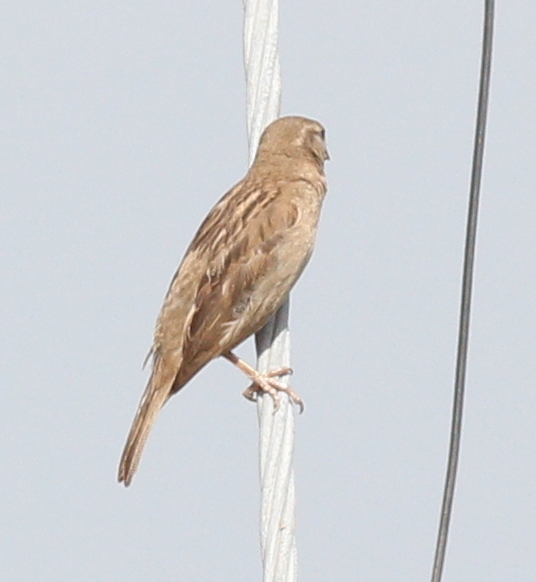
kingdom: Animalia
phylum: Chordata
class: Aves
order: Passeriformes
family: Passeridae
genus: Passer
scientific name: Passer domesticus
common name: House sparrow
